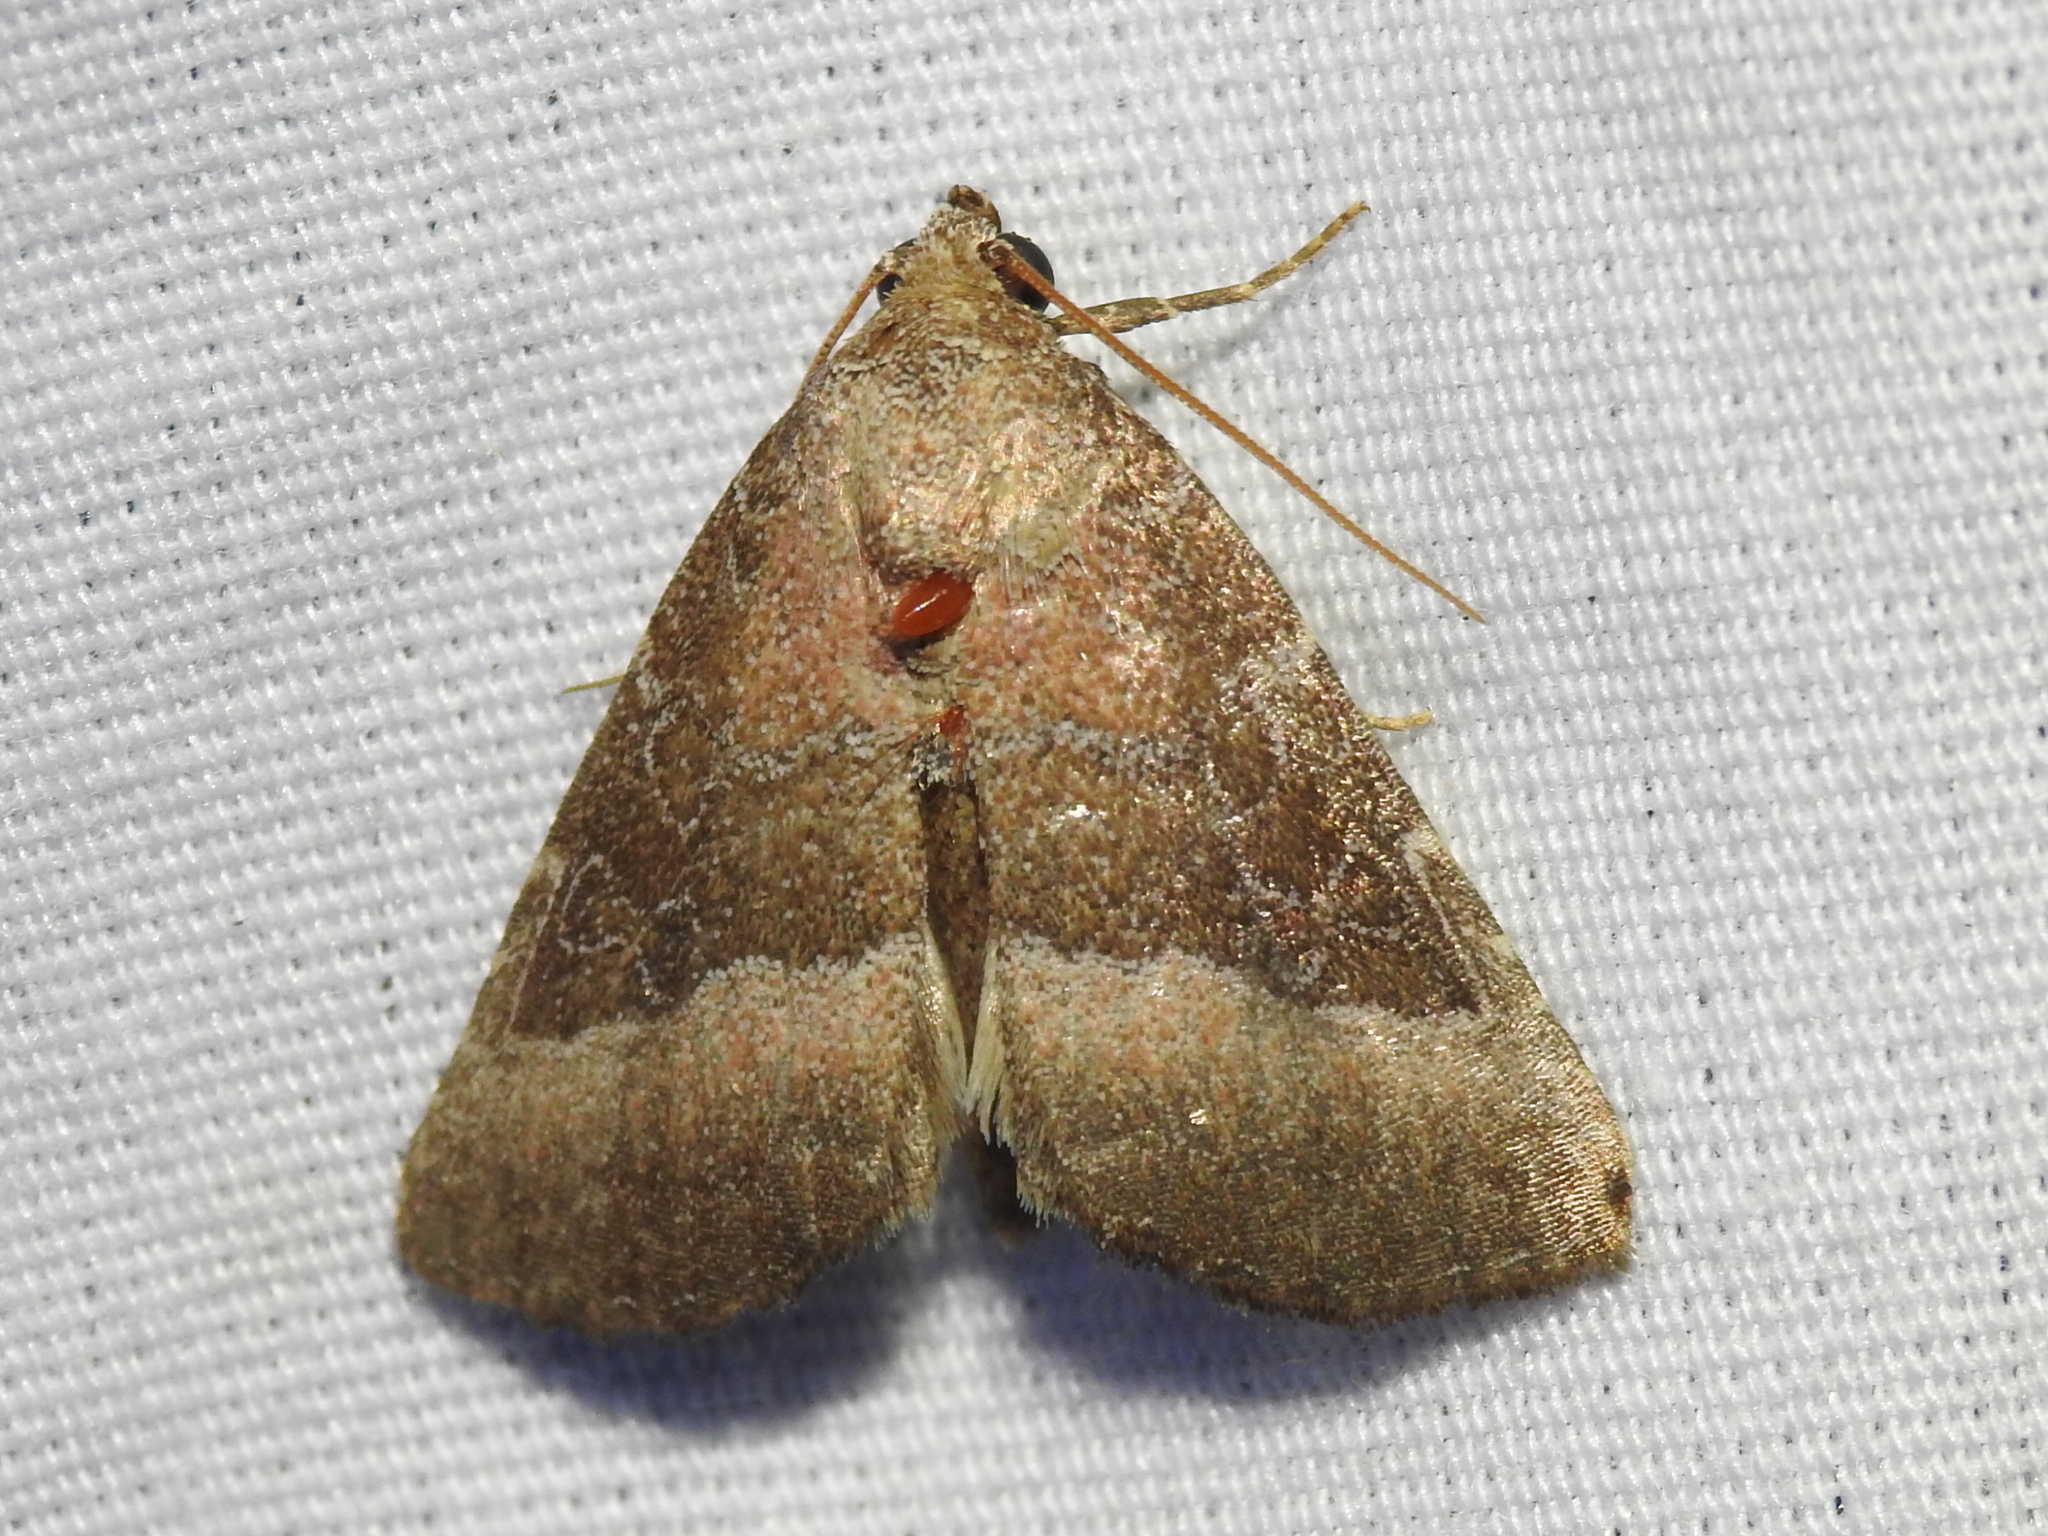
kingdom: Animalia
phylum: Arthropoda
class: Insecta
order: Lepidoptera
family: Noctuidae
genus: Ogdoconta
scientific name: Ogdoconta cinereola
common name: Common pinkband
